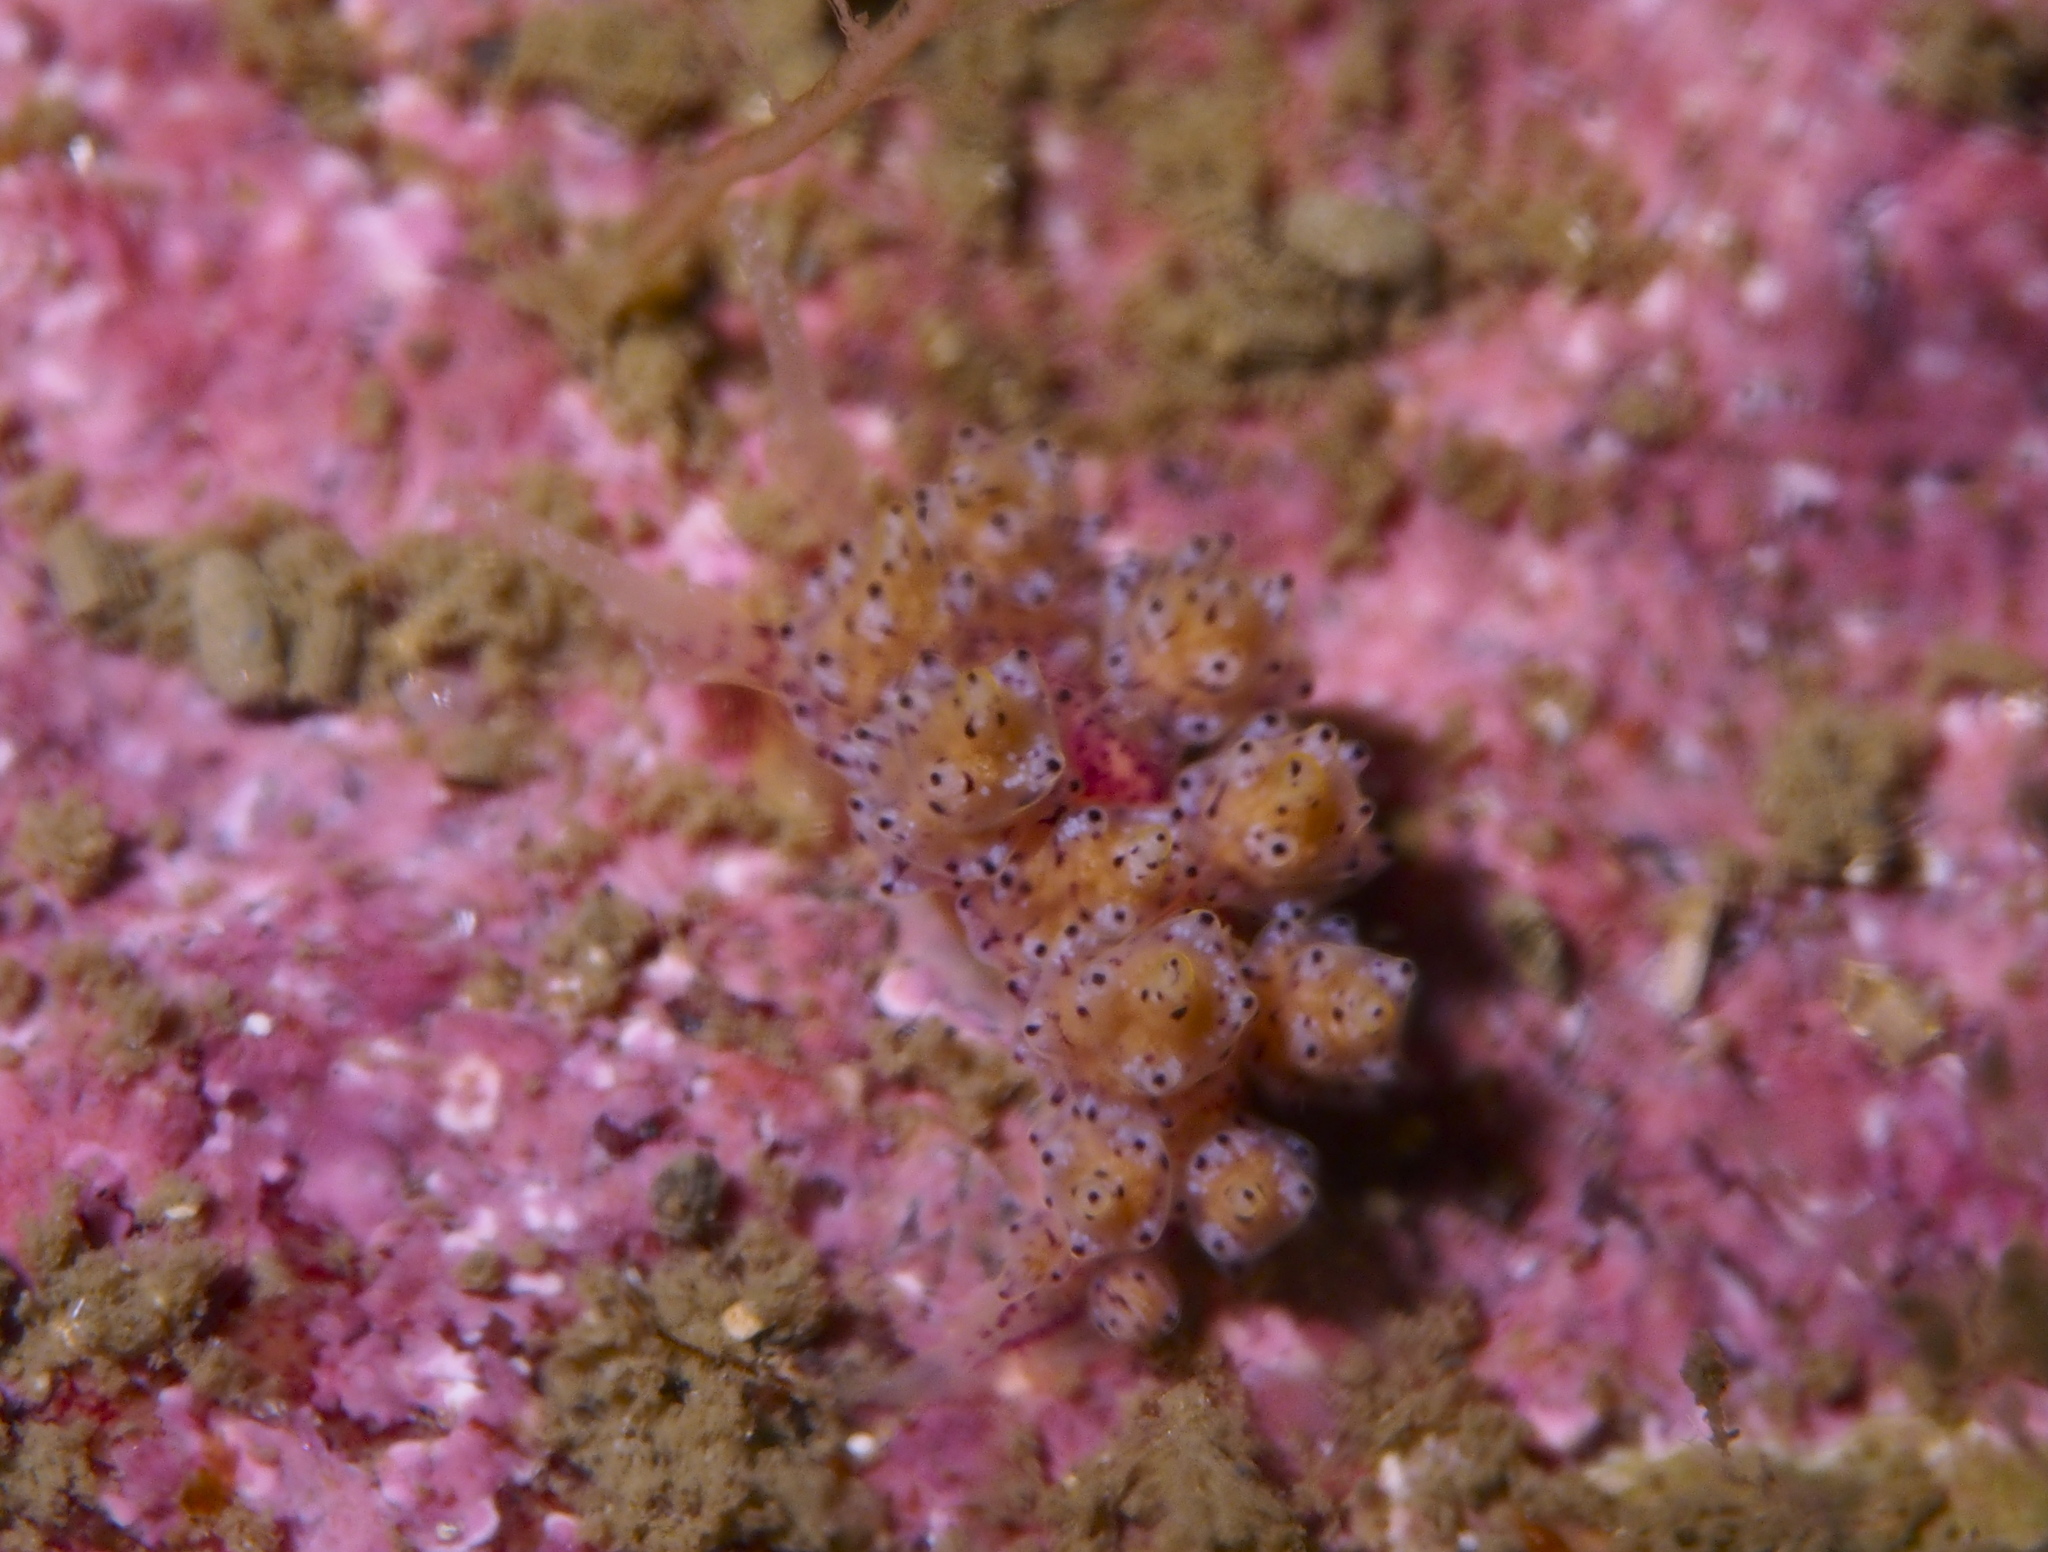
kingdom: Animalia
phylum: Mollusca
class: Gastropoda
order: Nudibranchia
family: Dotidae
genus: Doto
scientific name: Doto dunnei
